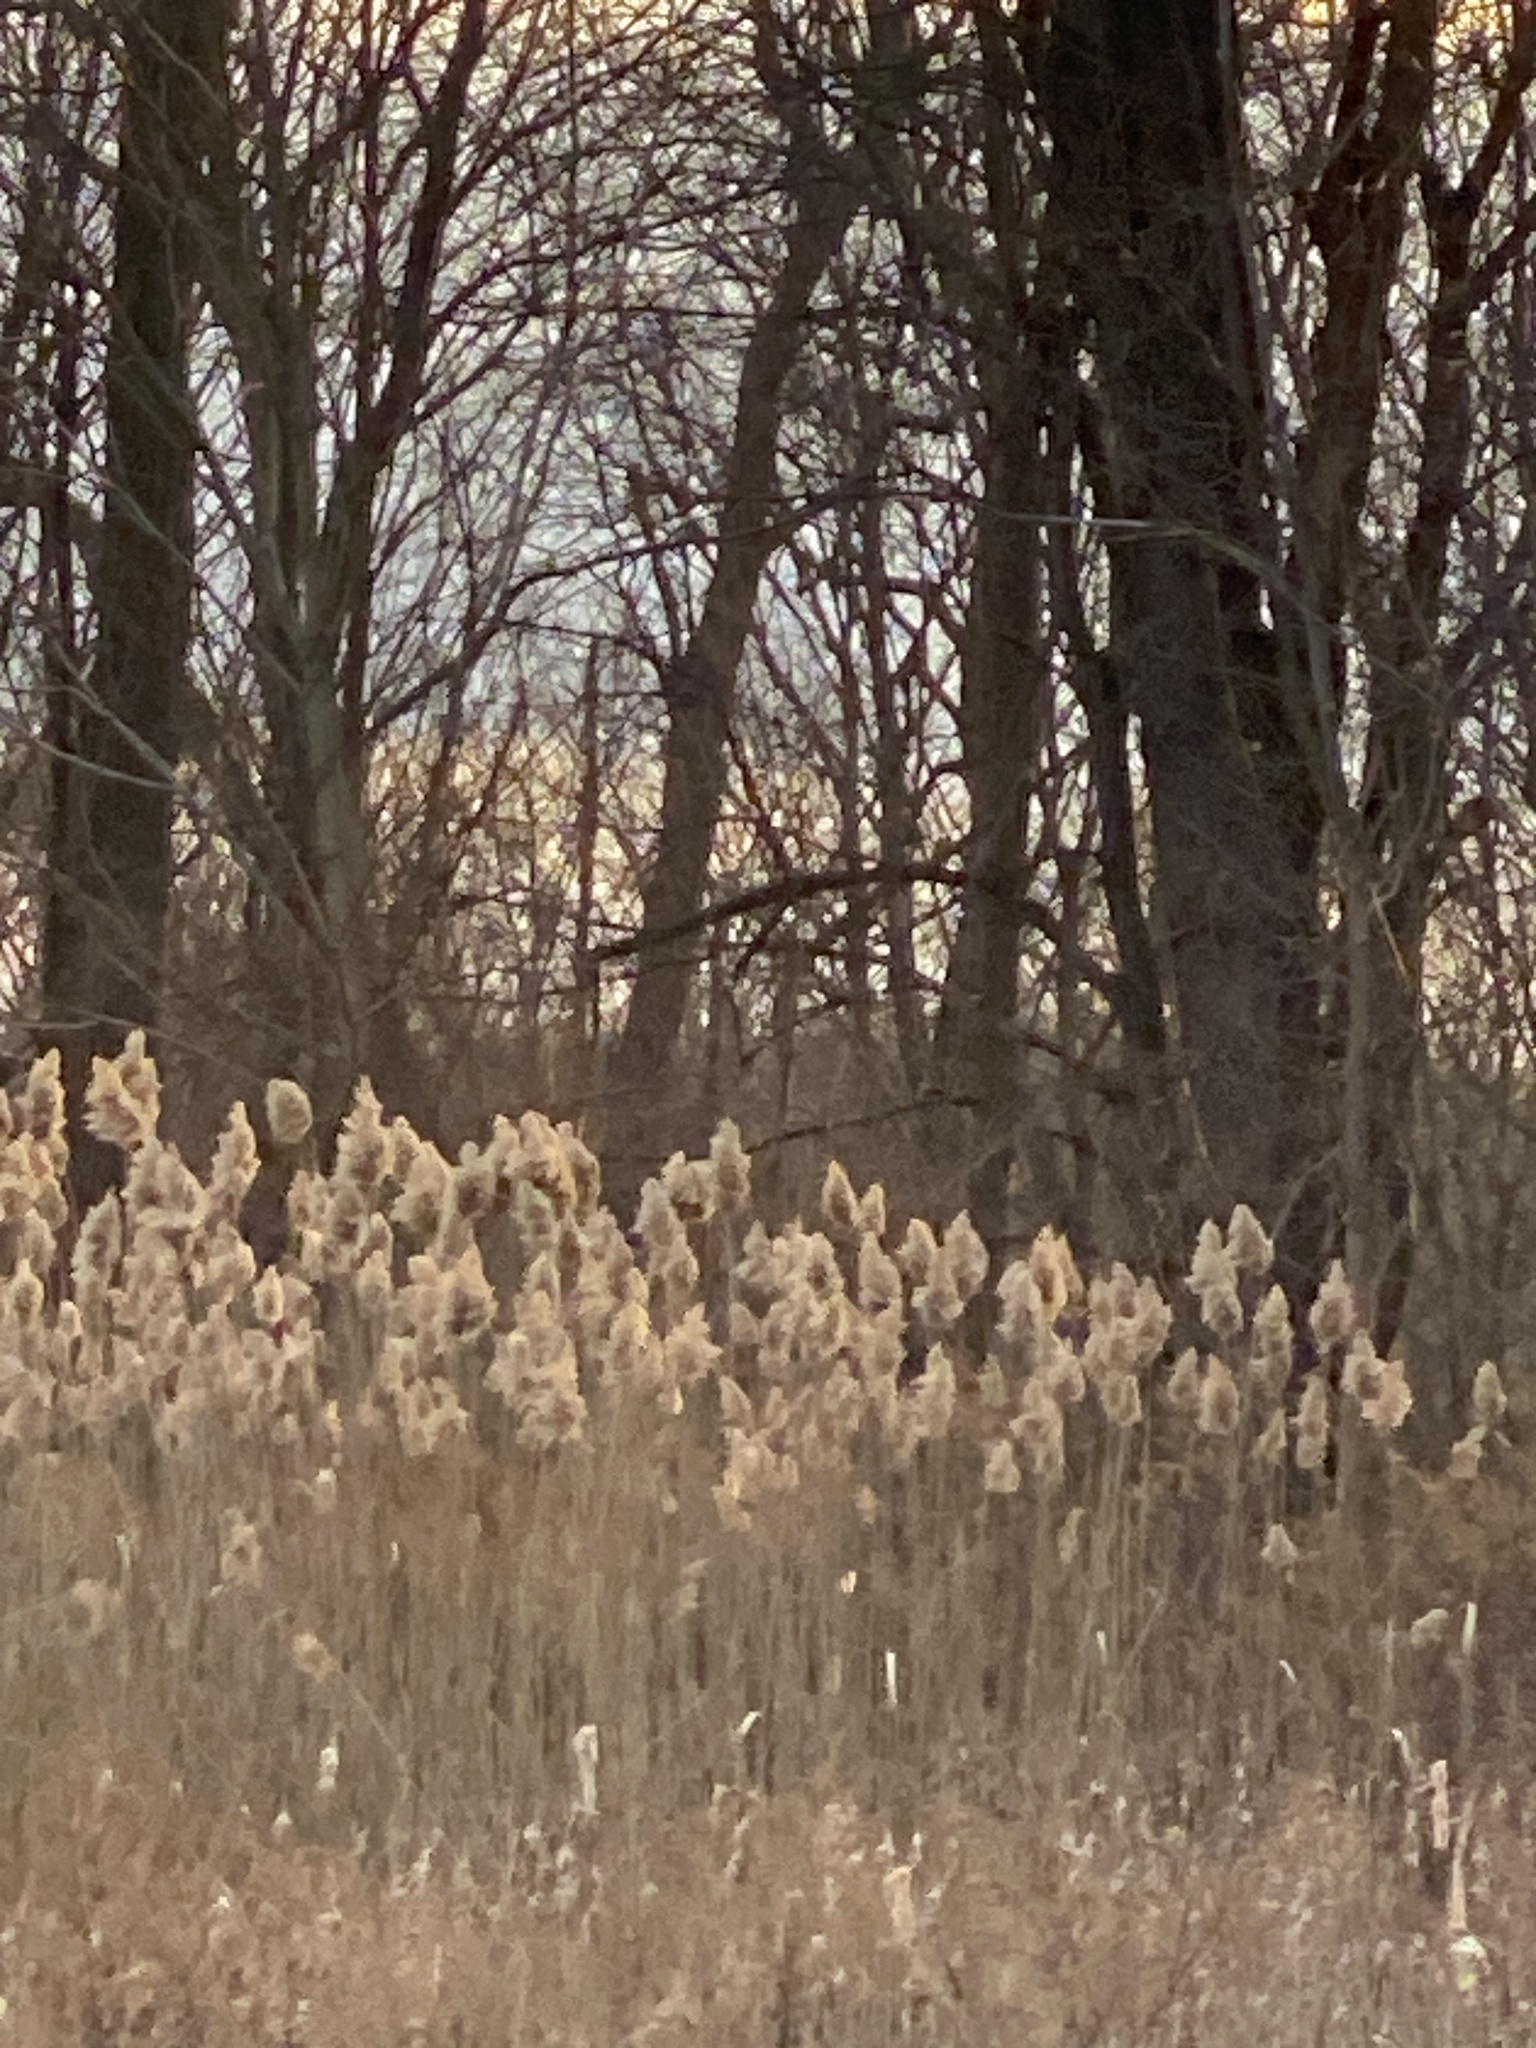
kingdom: Plantae
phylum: Tracheophyta
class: Liliopsida
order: Poales
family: Poaceae
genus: Phragmites
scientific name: Phragmites australis
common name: Common reed
